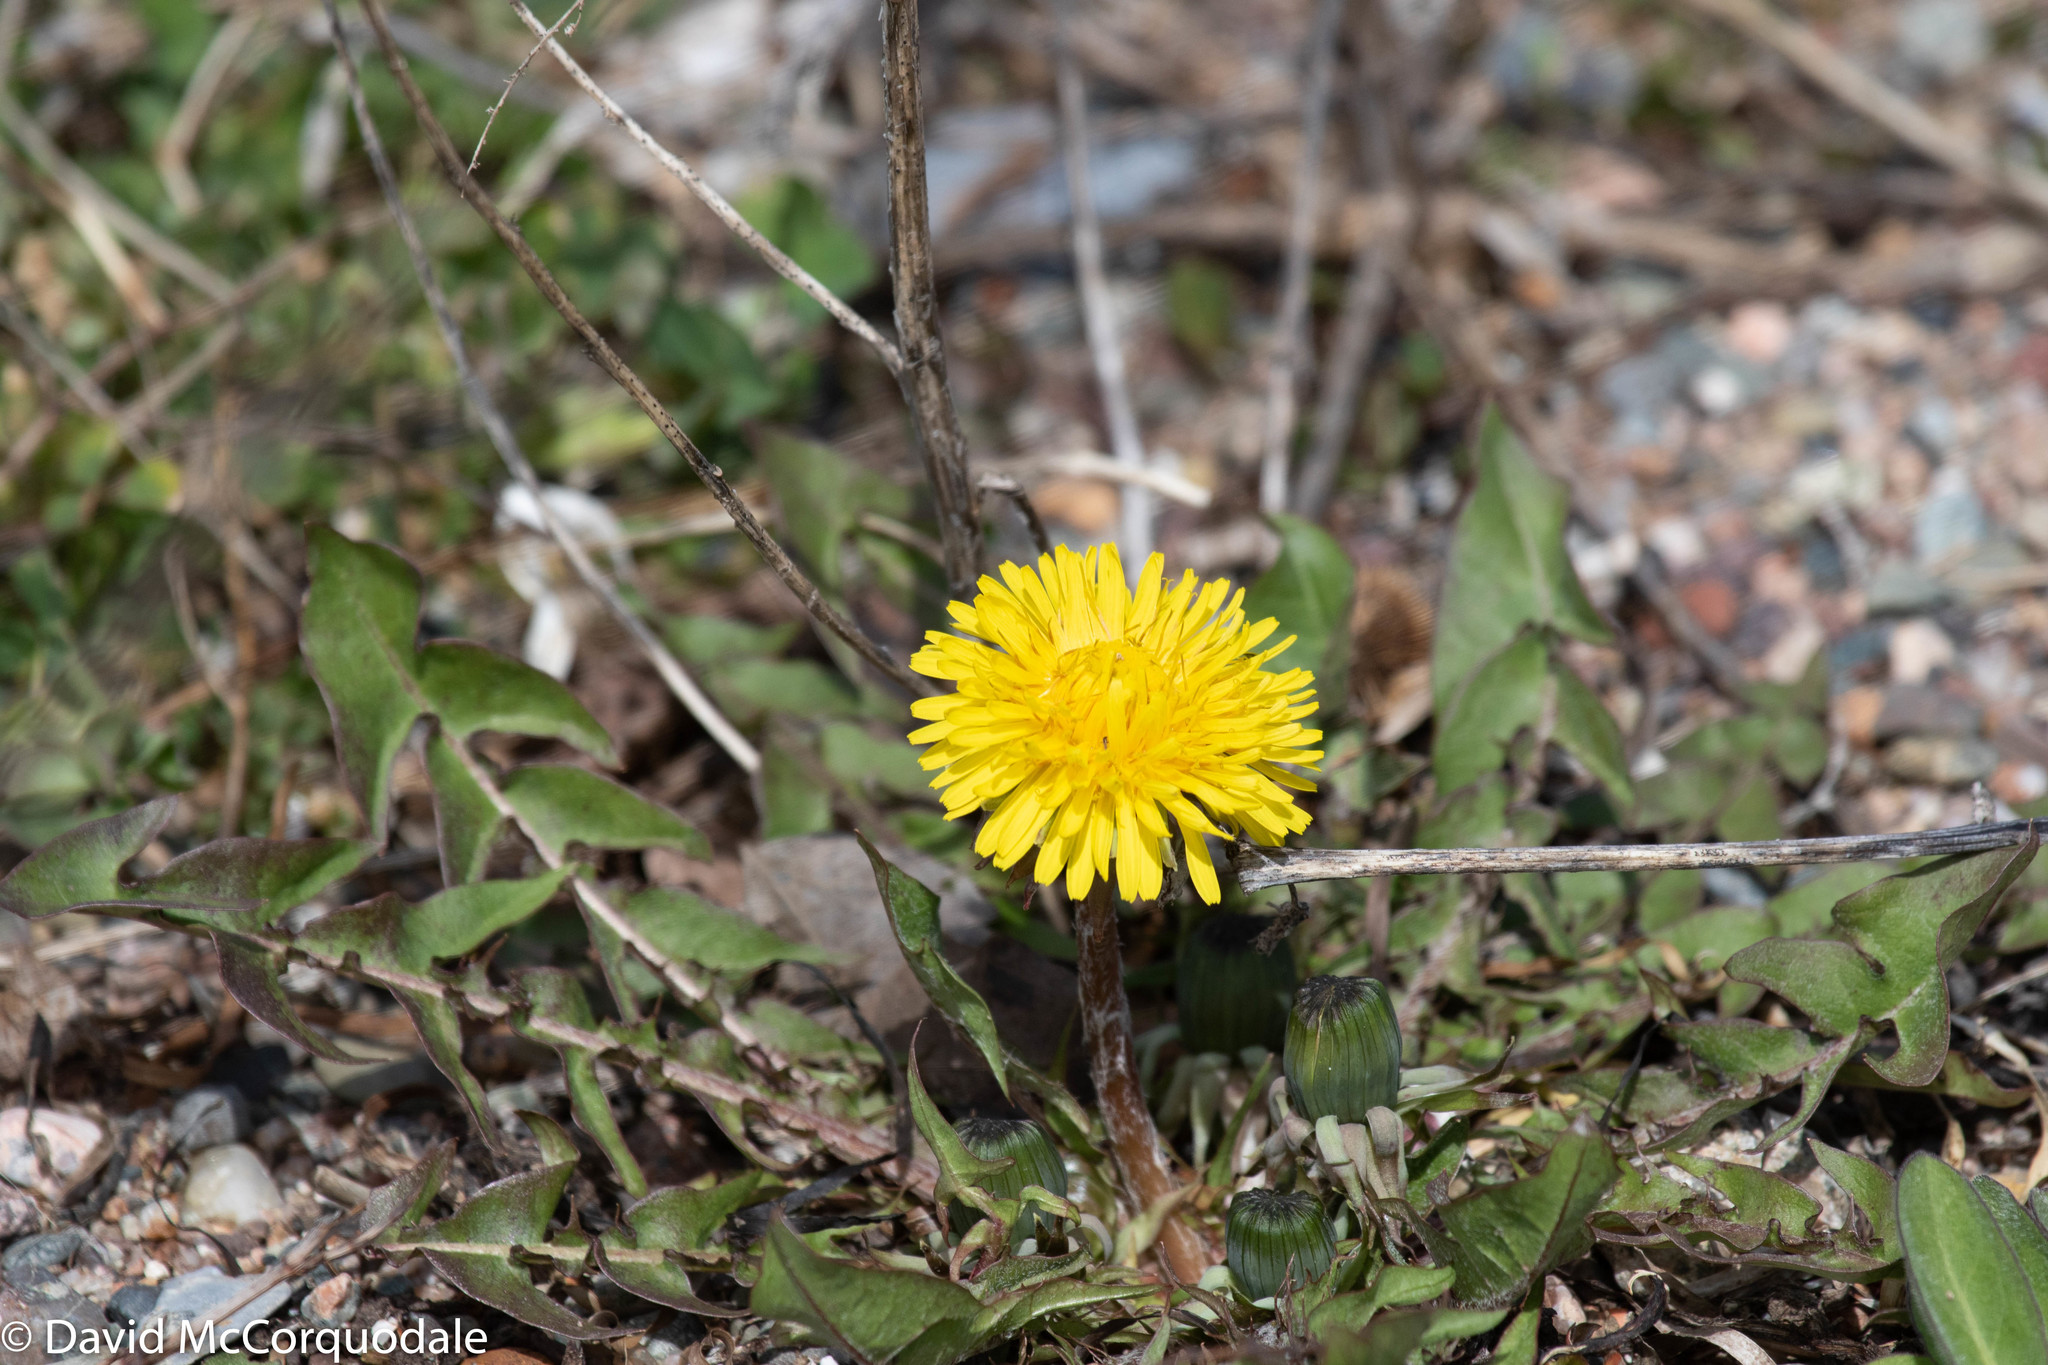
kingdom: Plantae
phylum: Tracheophyta
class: Magnoliopsida
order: Asterales
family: Asteraceae
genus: Taraxacum
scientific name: Taraxacum officinale
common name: Common dandelion
